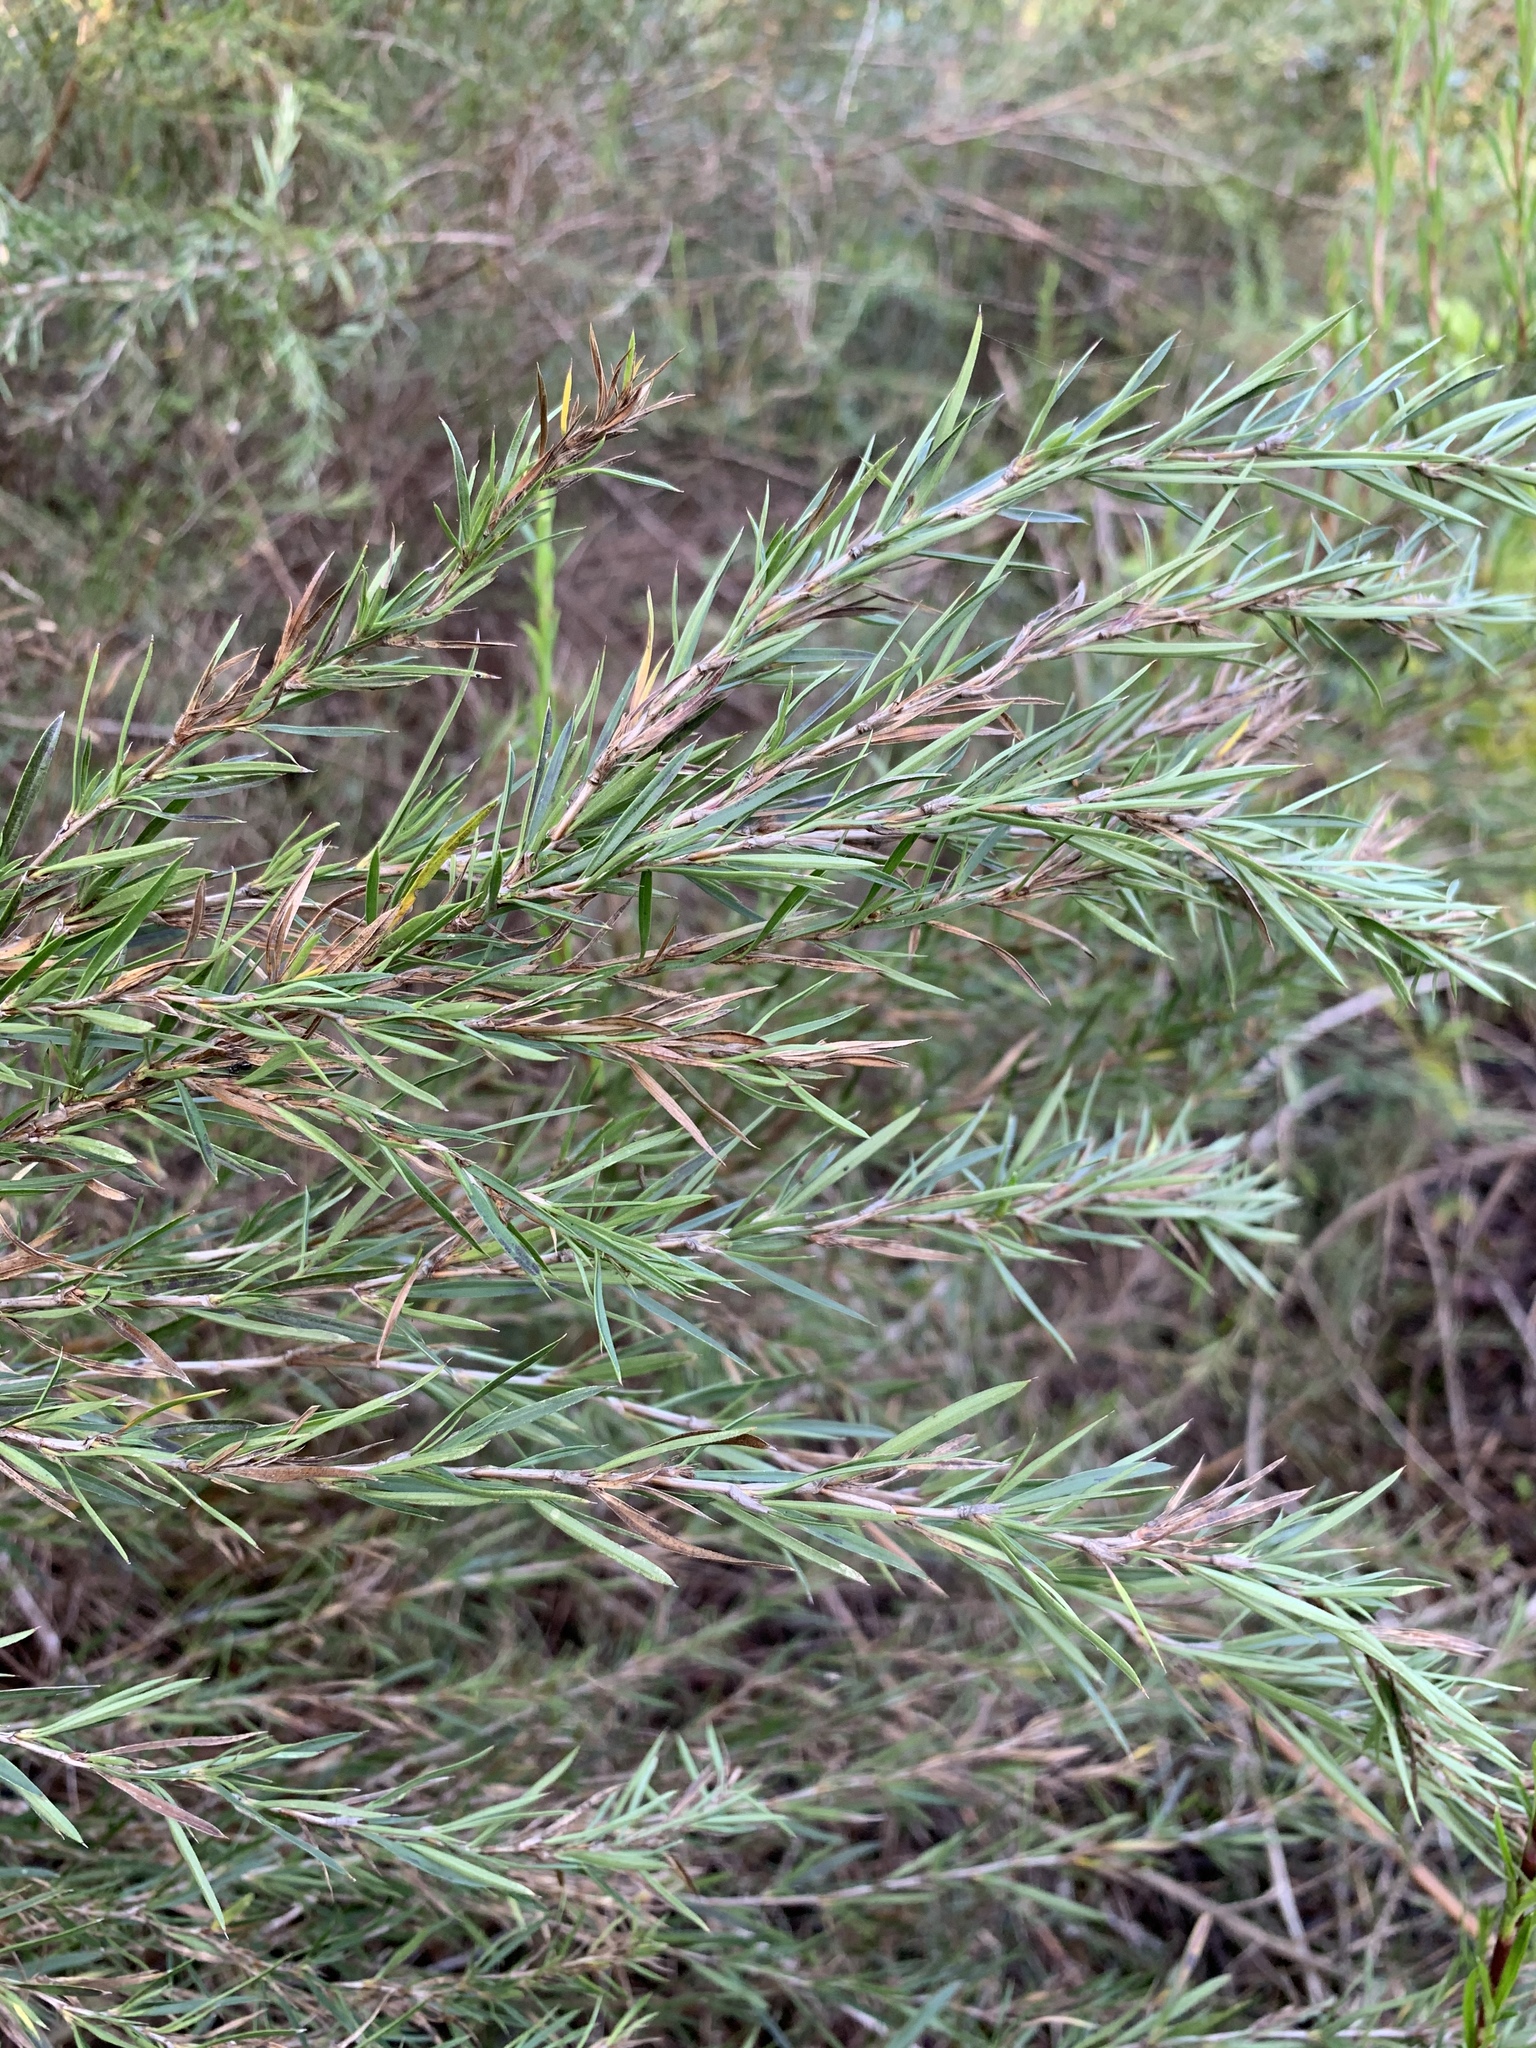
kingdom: Plantae
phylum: Tracheophyta
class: Magnoliopsida
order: Rosales
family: Rosaceae
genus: Cliffortia
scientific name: Cliffortia strobilifera
